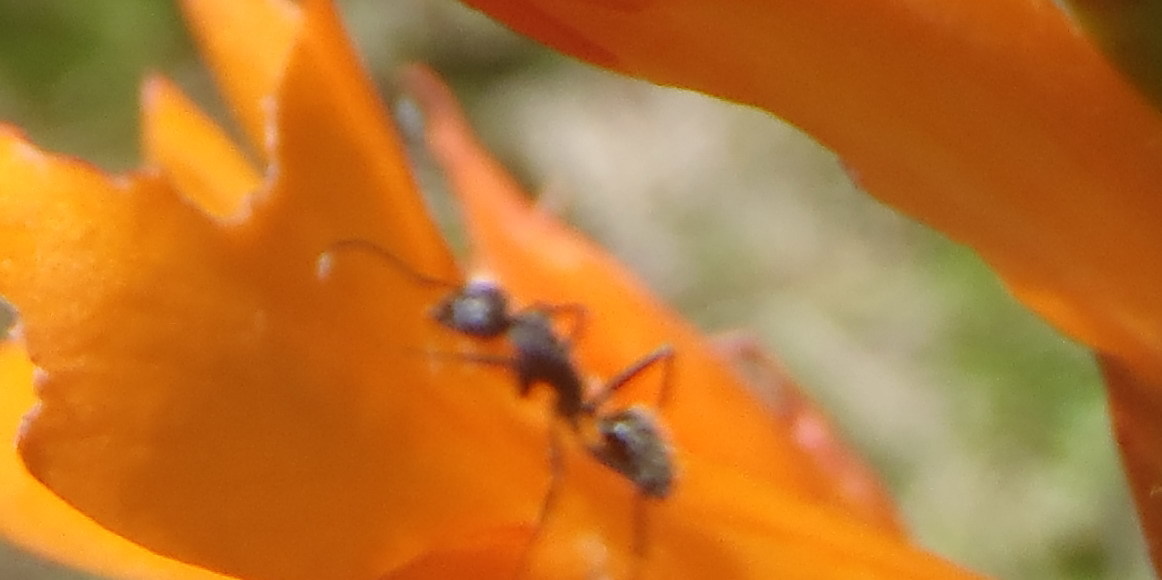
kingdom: Animalia
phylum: Arthropoda
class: Insecta
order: Hymenoptera
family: Formicidae
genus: Camponotus
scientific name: Camponotus niveosetosus
